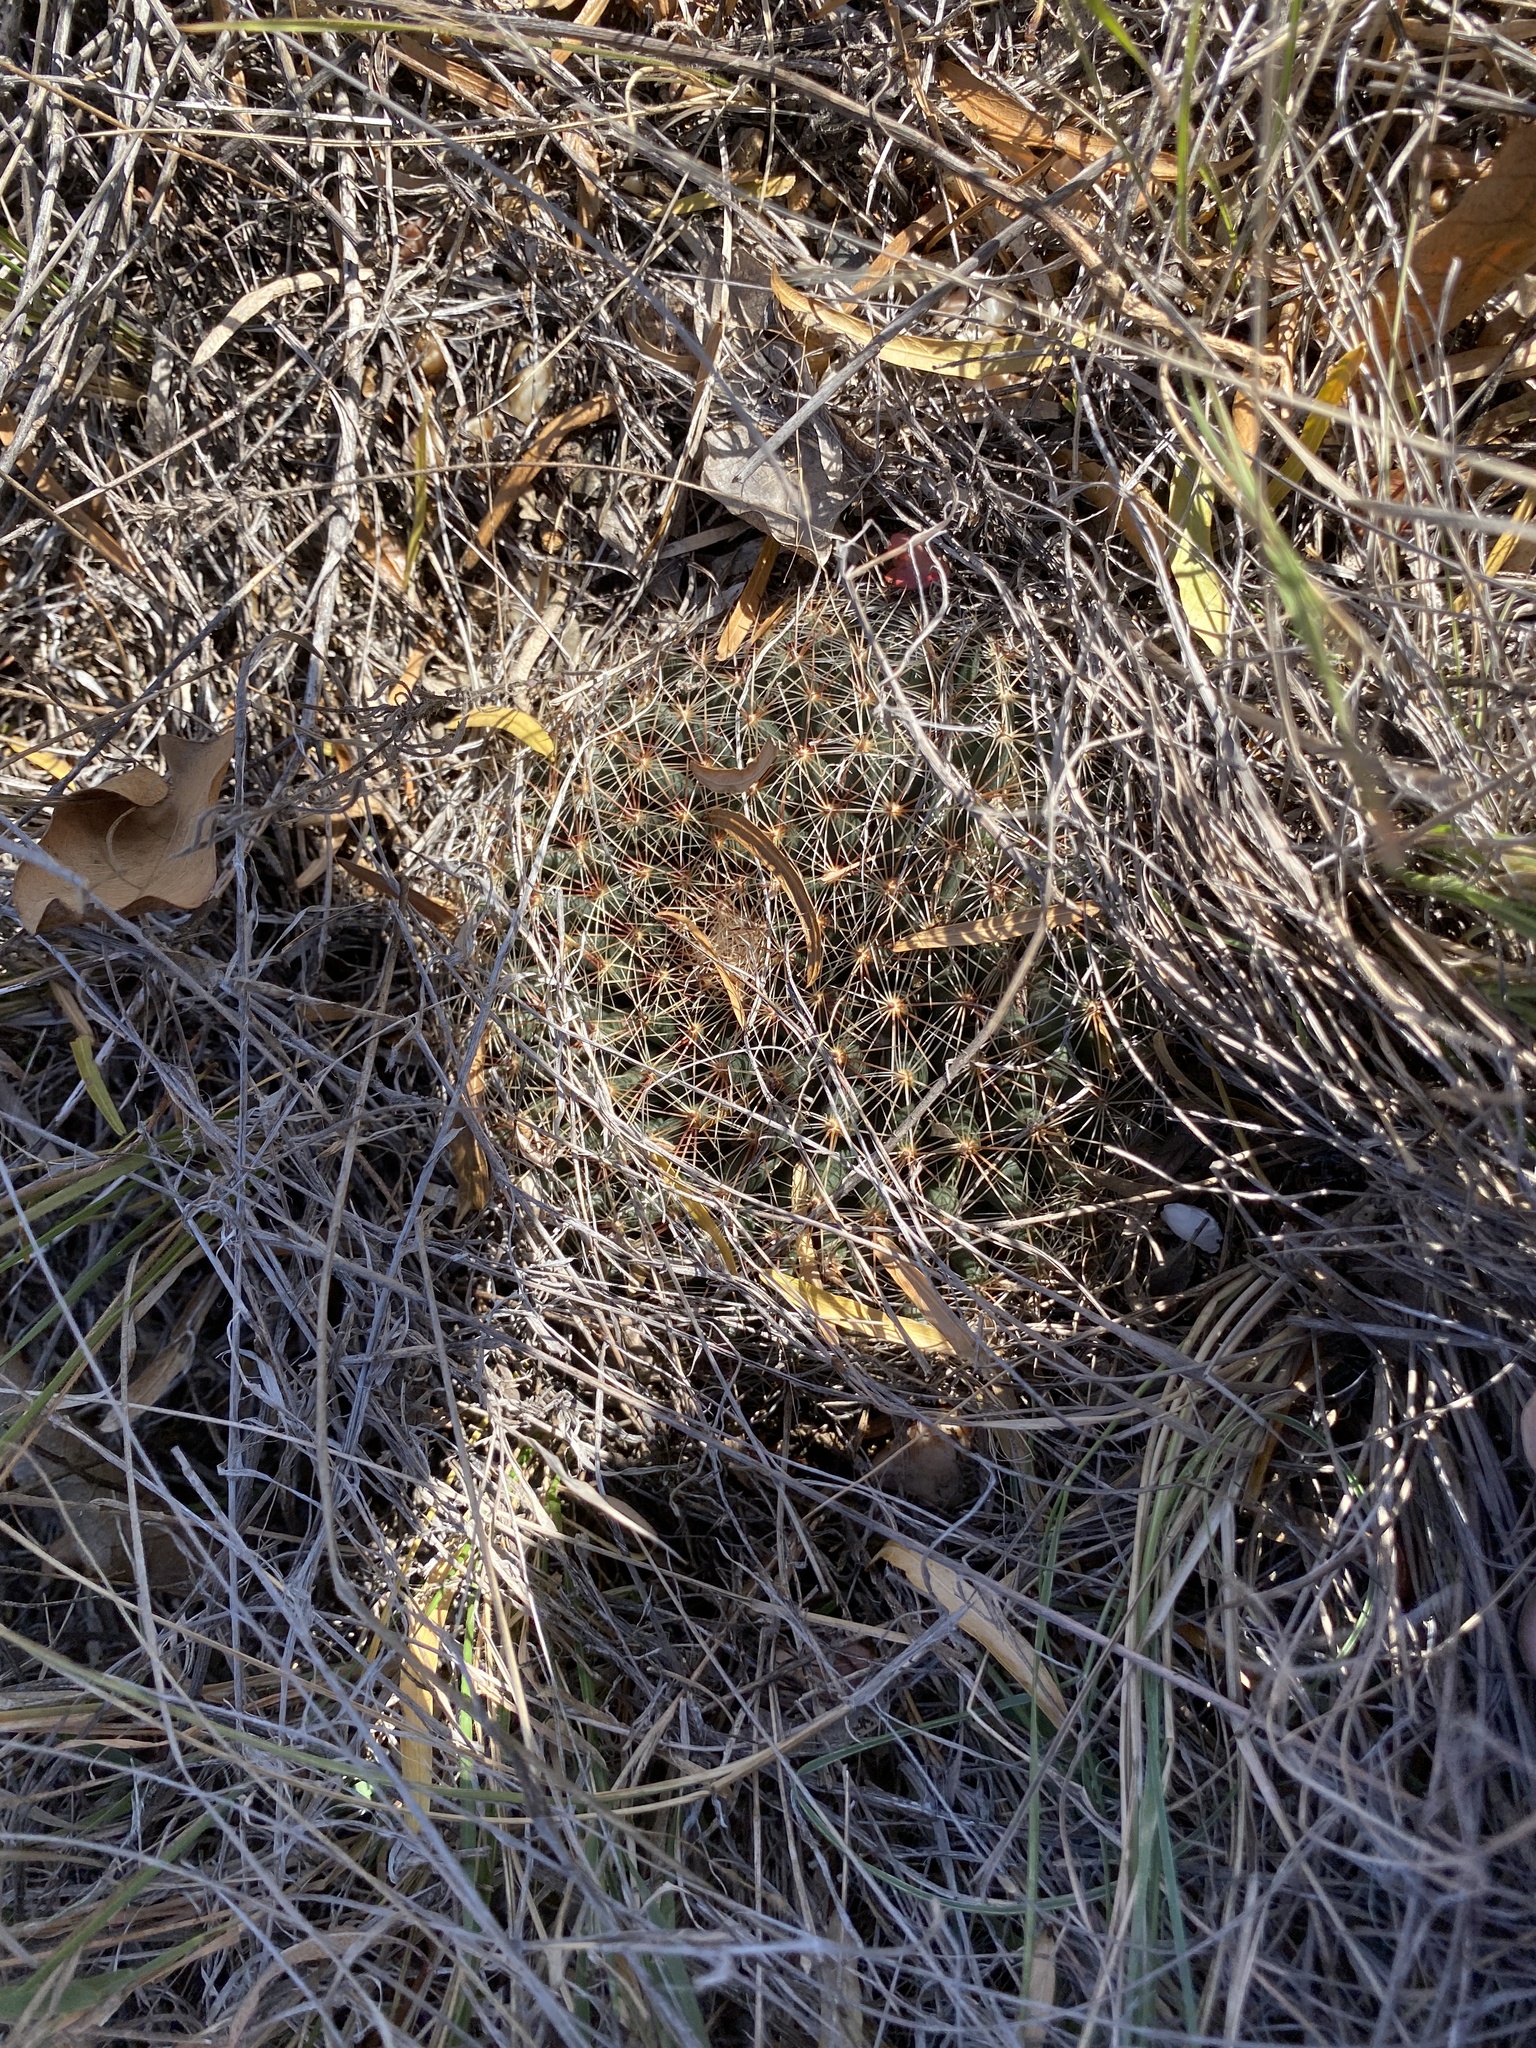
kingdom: Plantae
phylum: Tracheophyta
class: Magnoliopsida
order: Caryophyllales
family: Cactaceae
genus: Mammillaria
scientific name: Mammillaria heyderi
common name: Little nipple cactus
